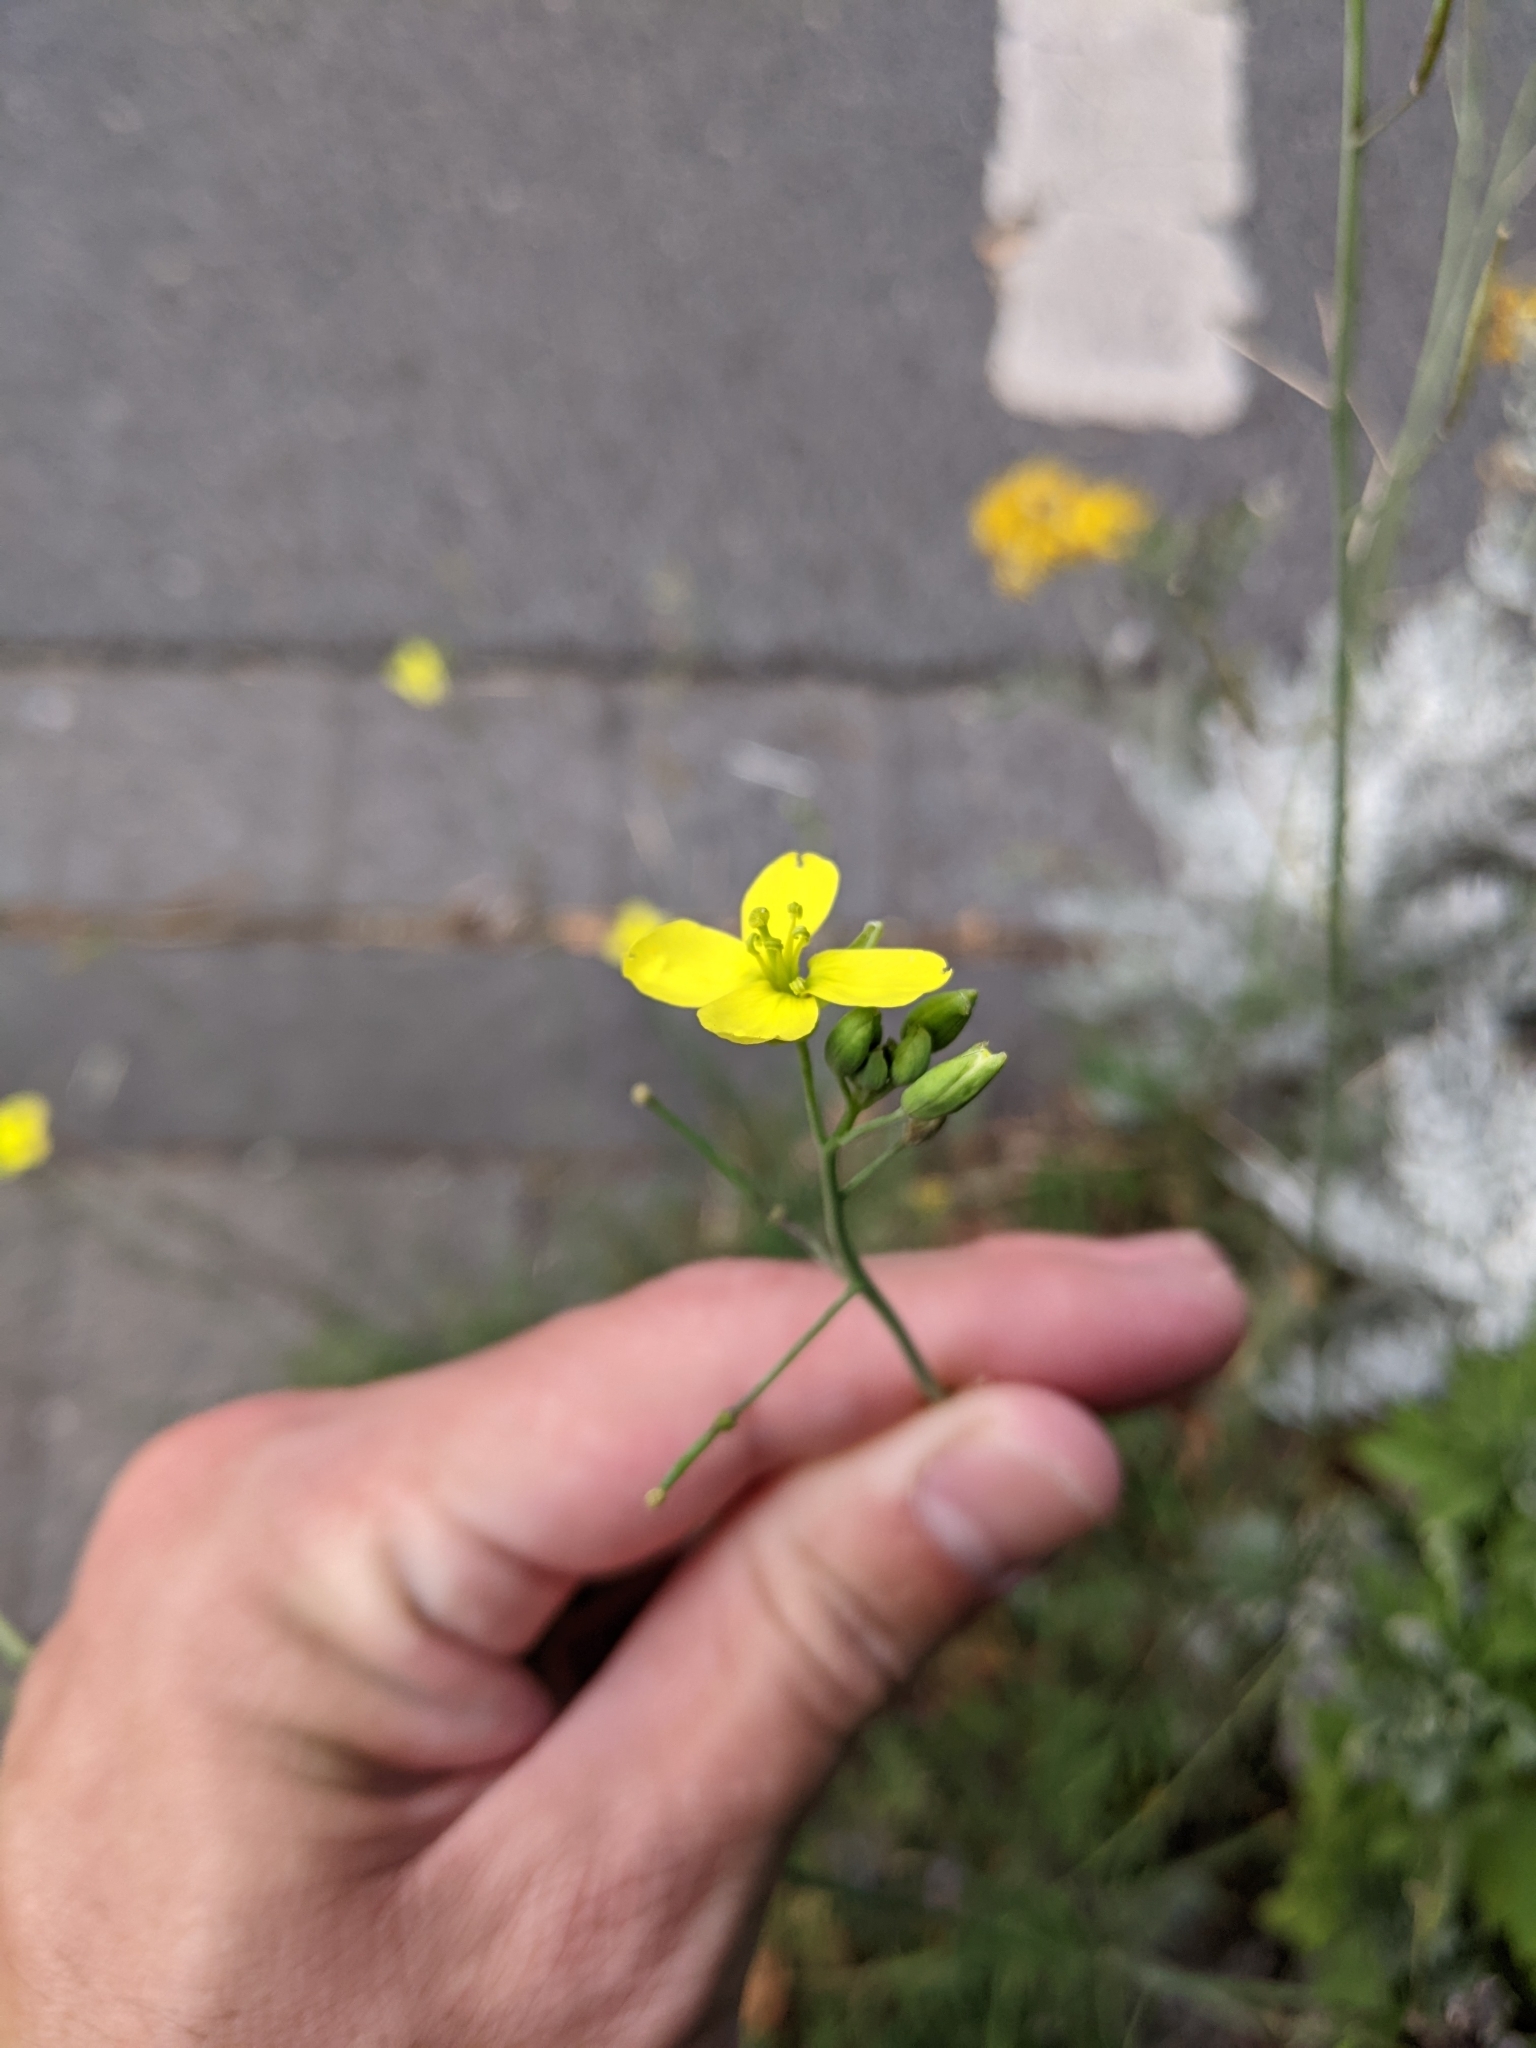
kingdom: Plantae
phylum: Tracheophyta
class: Magnoliopsida
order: Brassicales
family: Brassicaceae
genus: Diplotaxis
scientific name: Diplotaxis tenuifolia
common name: Perennial wall-rocket
